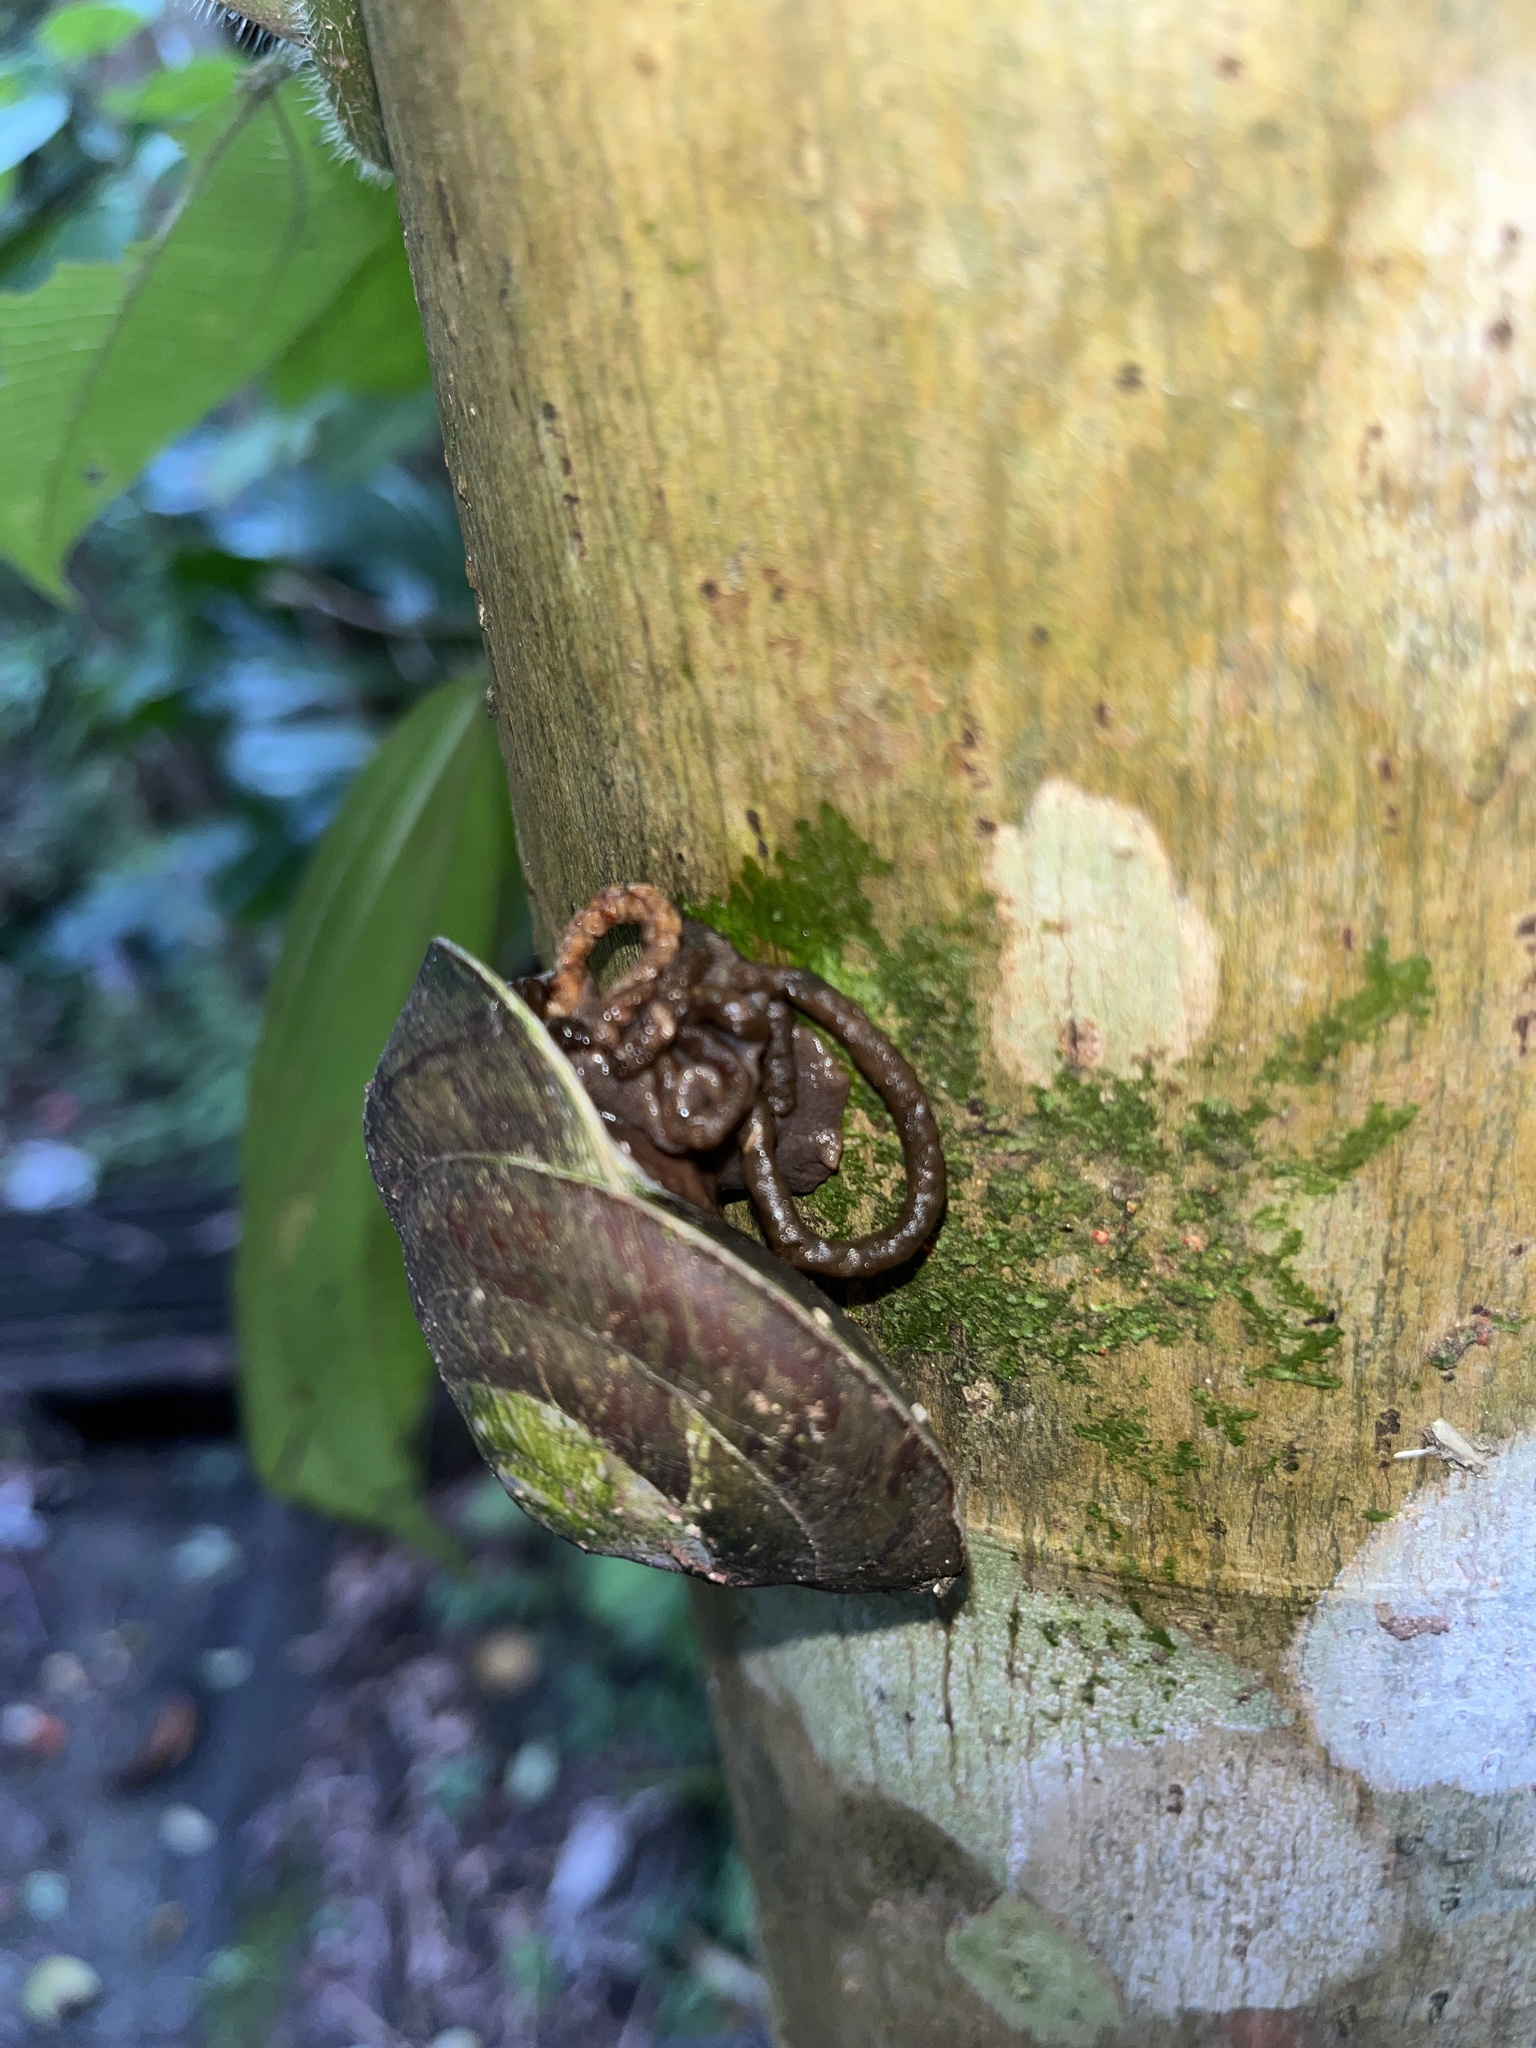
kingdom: Animalia
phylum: Mollusca
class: Gastropoda
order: Stylommatophora
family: Solaropsidae
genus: Caracolus
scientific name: Caracolus carocolla
